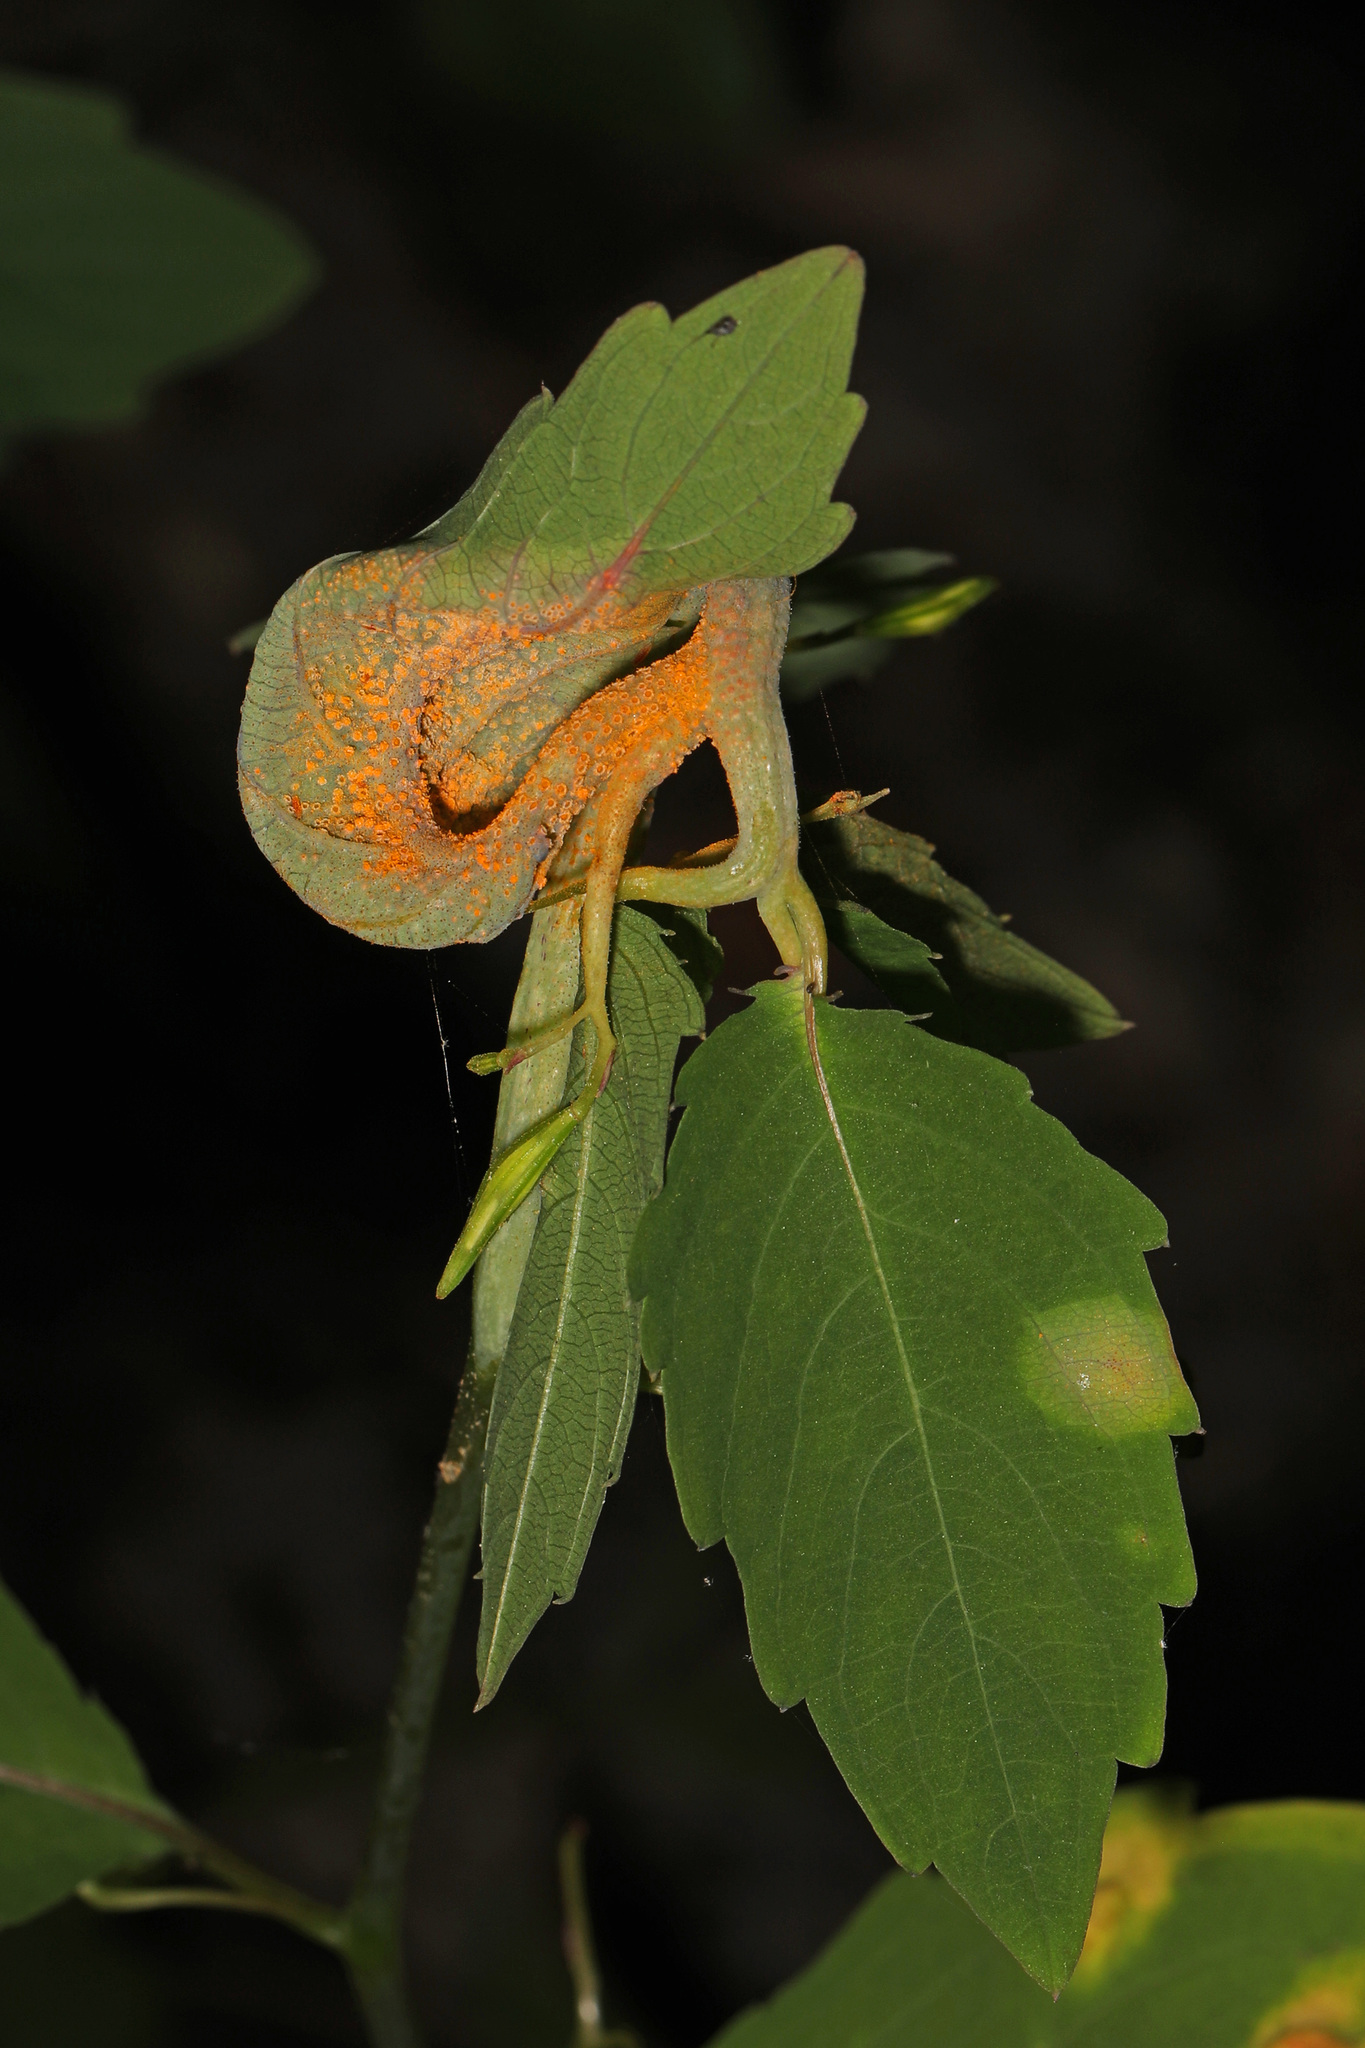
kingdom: Fungi
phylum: Basidiomycota
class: Pucciniomycetes
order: Pucciniales
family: Pucciniaceae
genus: Puccinia
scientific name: Puccinia recondita
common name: Brown rust of wheat
